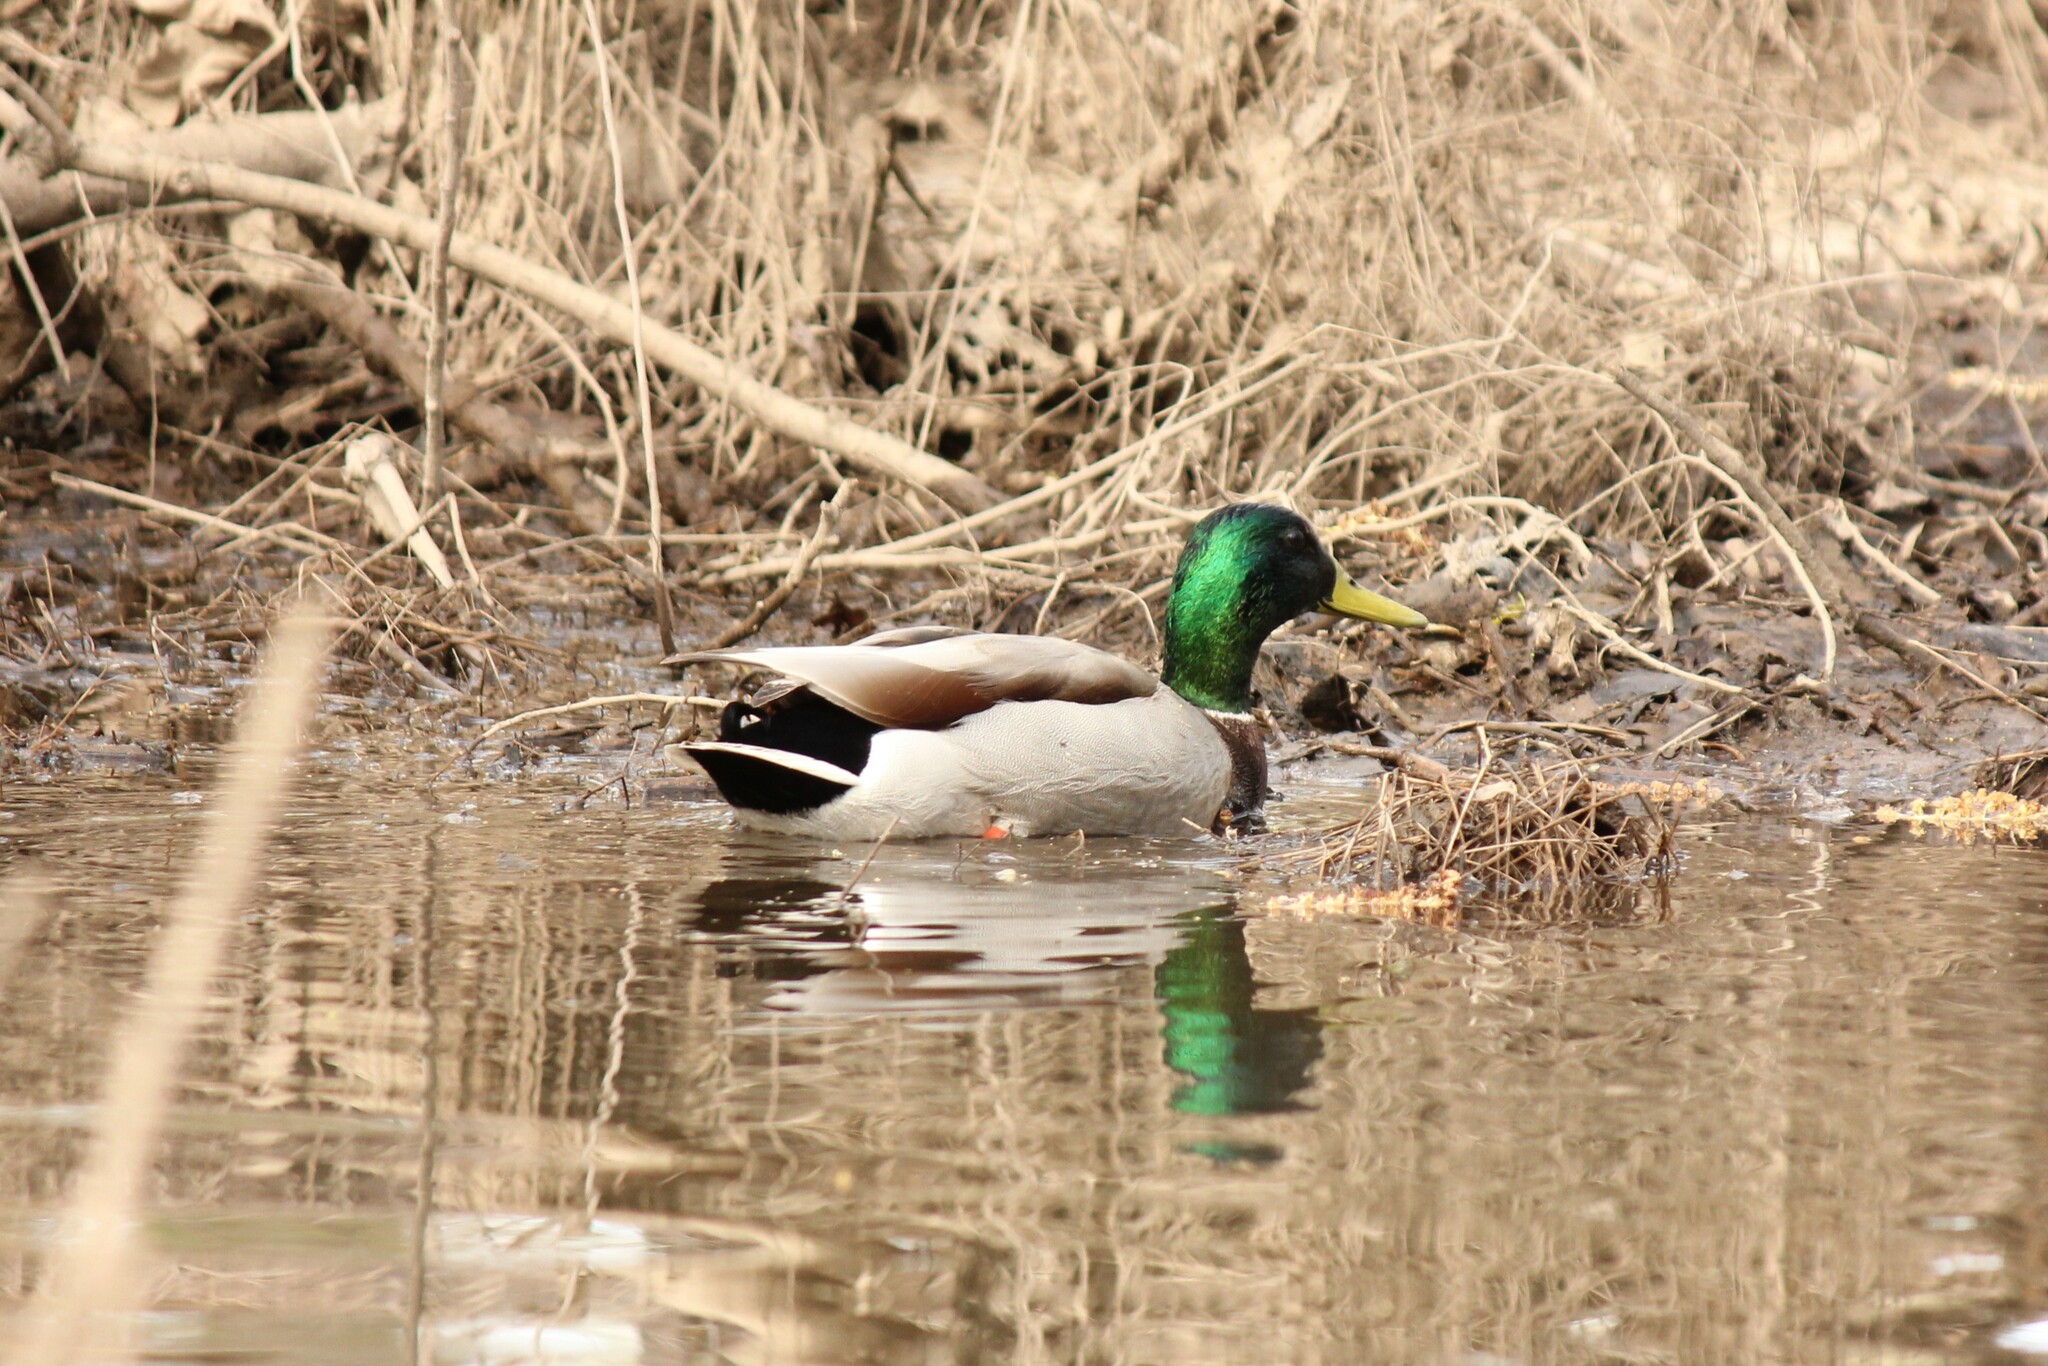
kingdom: Animalia
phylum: Chordata
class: Aves
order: Anseriformes
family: Anatidae
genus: Anas
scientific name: Anas platyrhynchos
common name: Mallard
